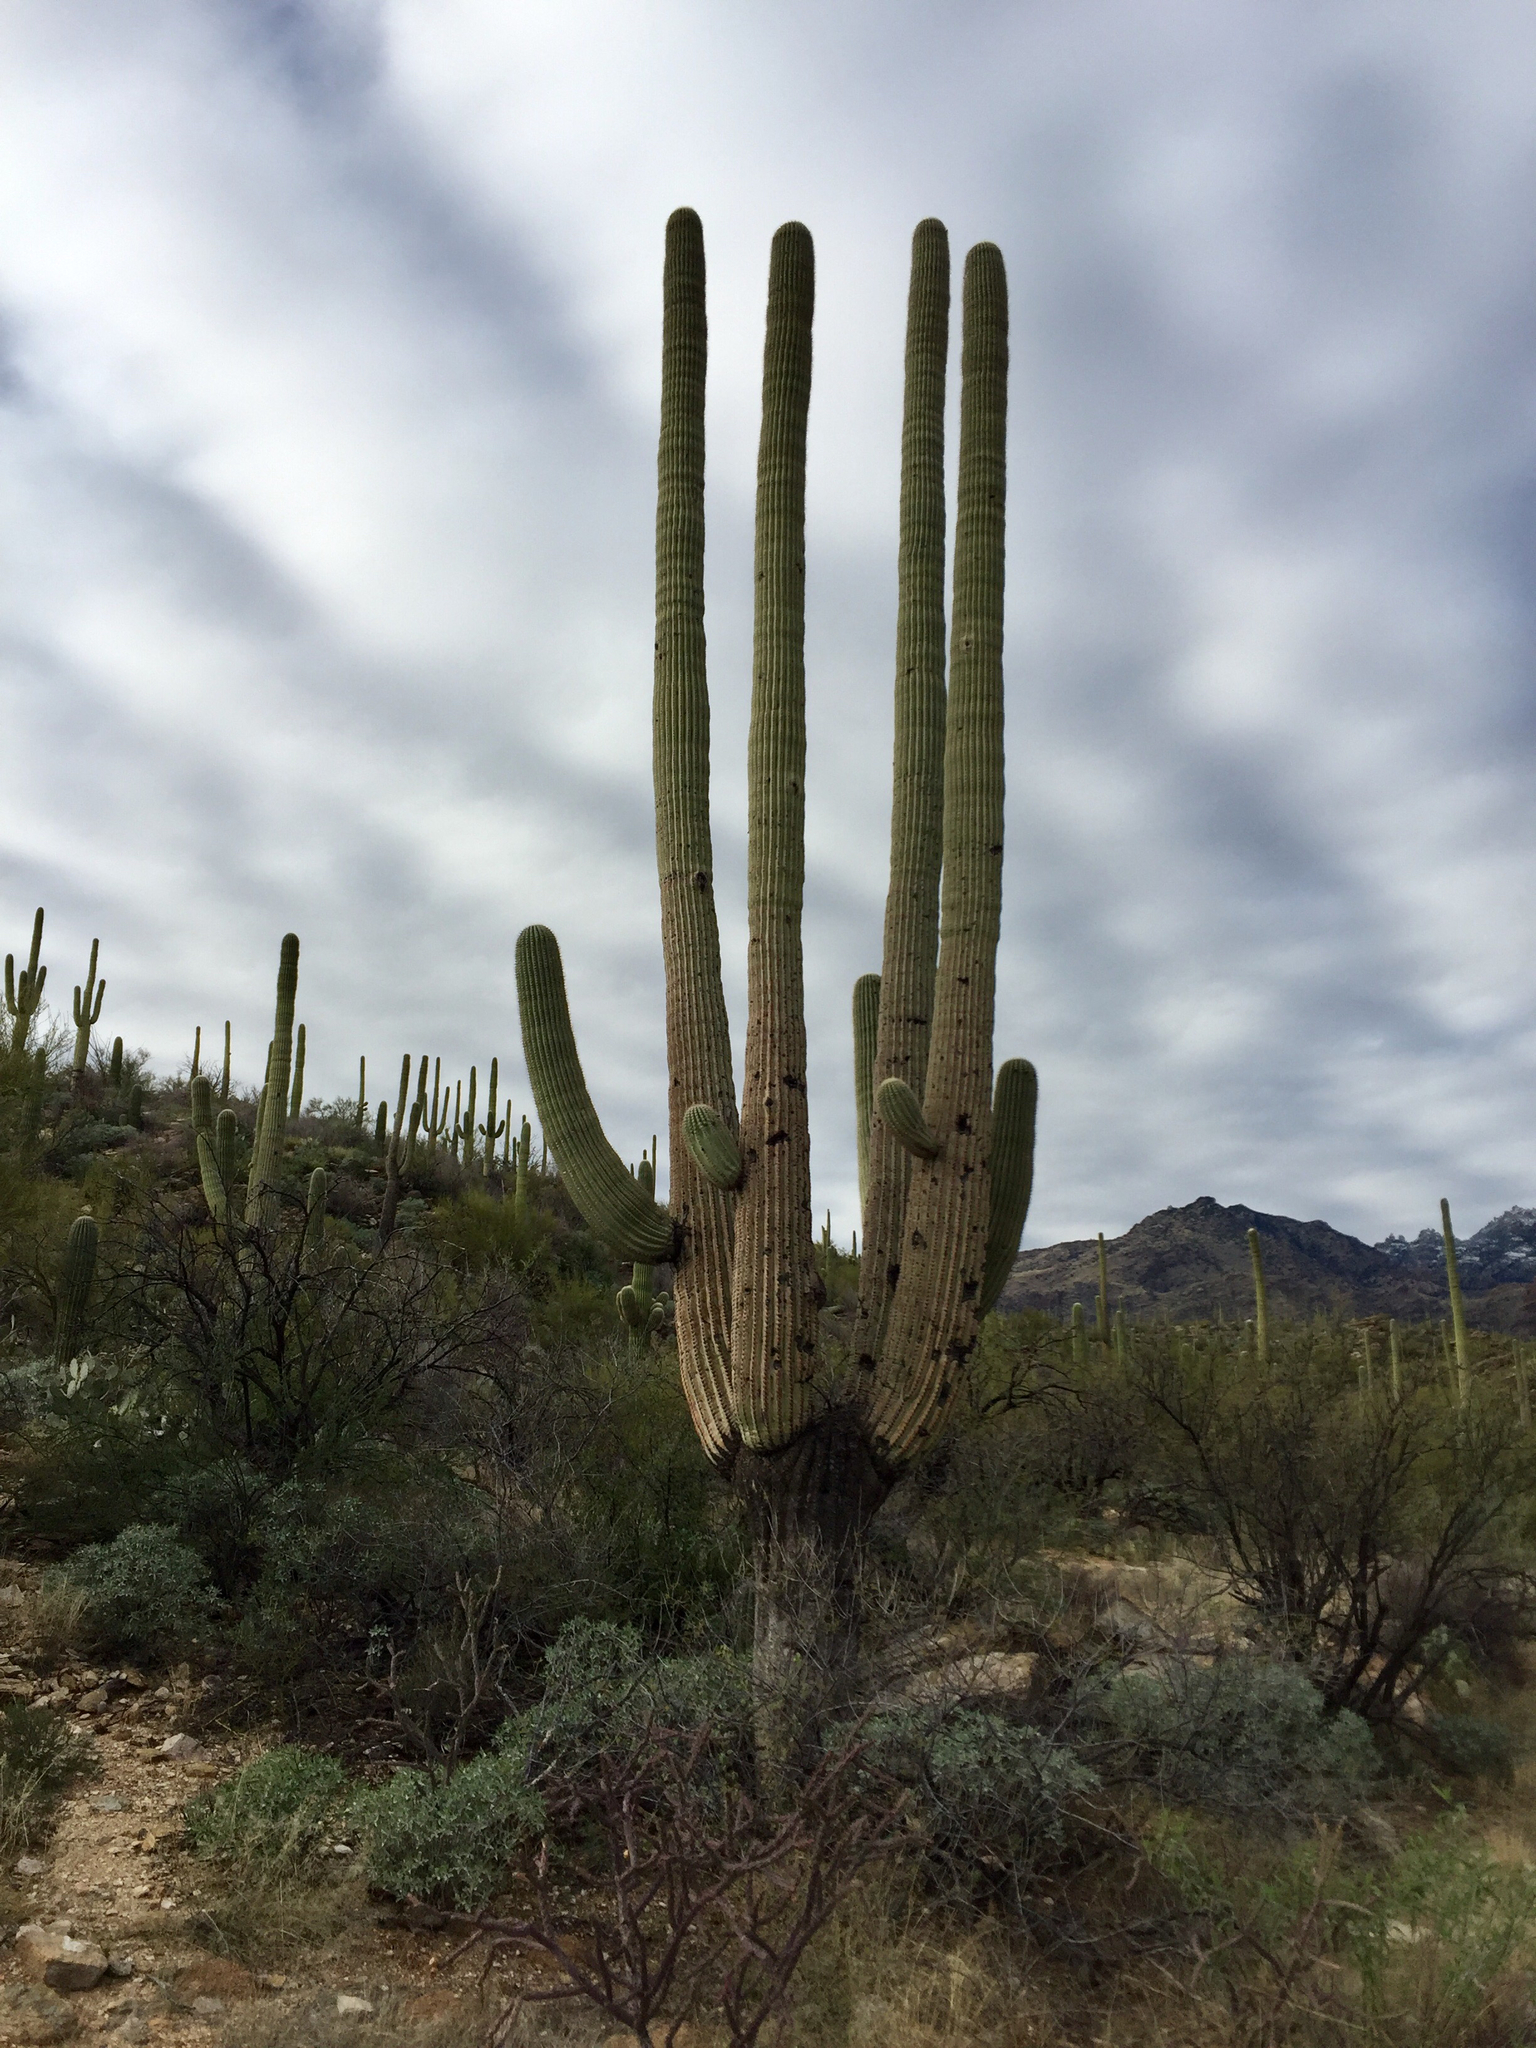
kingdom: Plantae
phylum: Tracheophyta
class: Magnoliopsida
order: Caryophyllales
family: Cactaceae
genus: Carnegiea
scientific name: Carnegiea gigantea
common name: Saguaro
